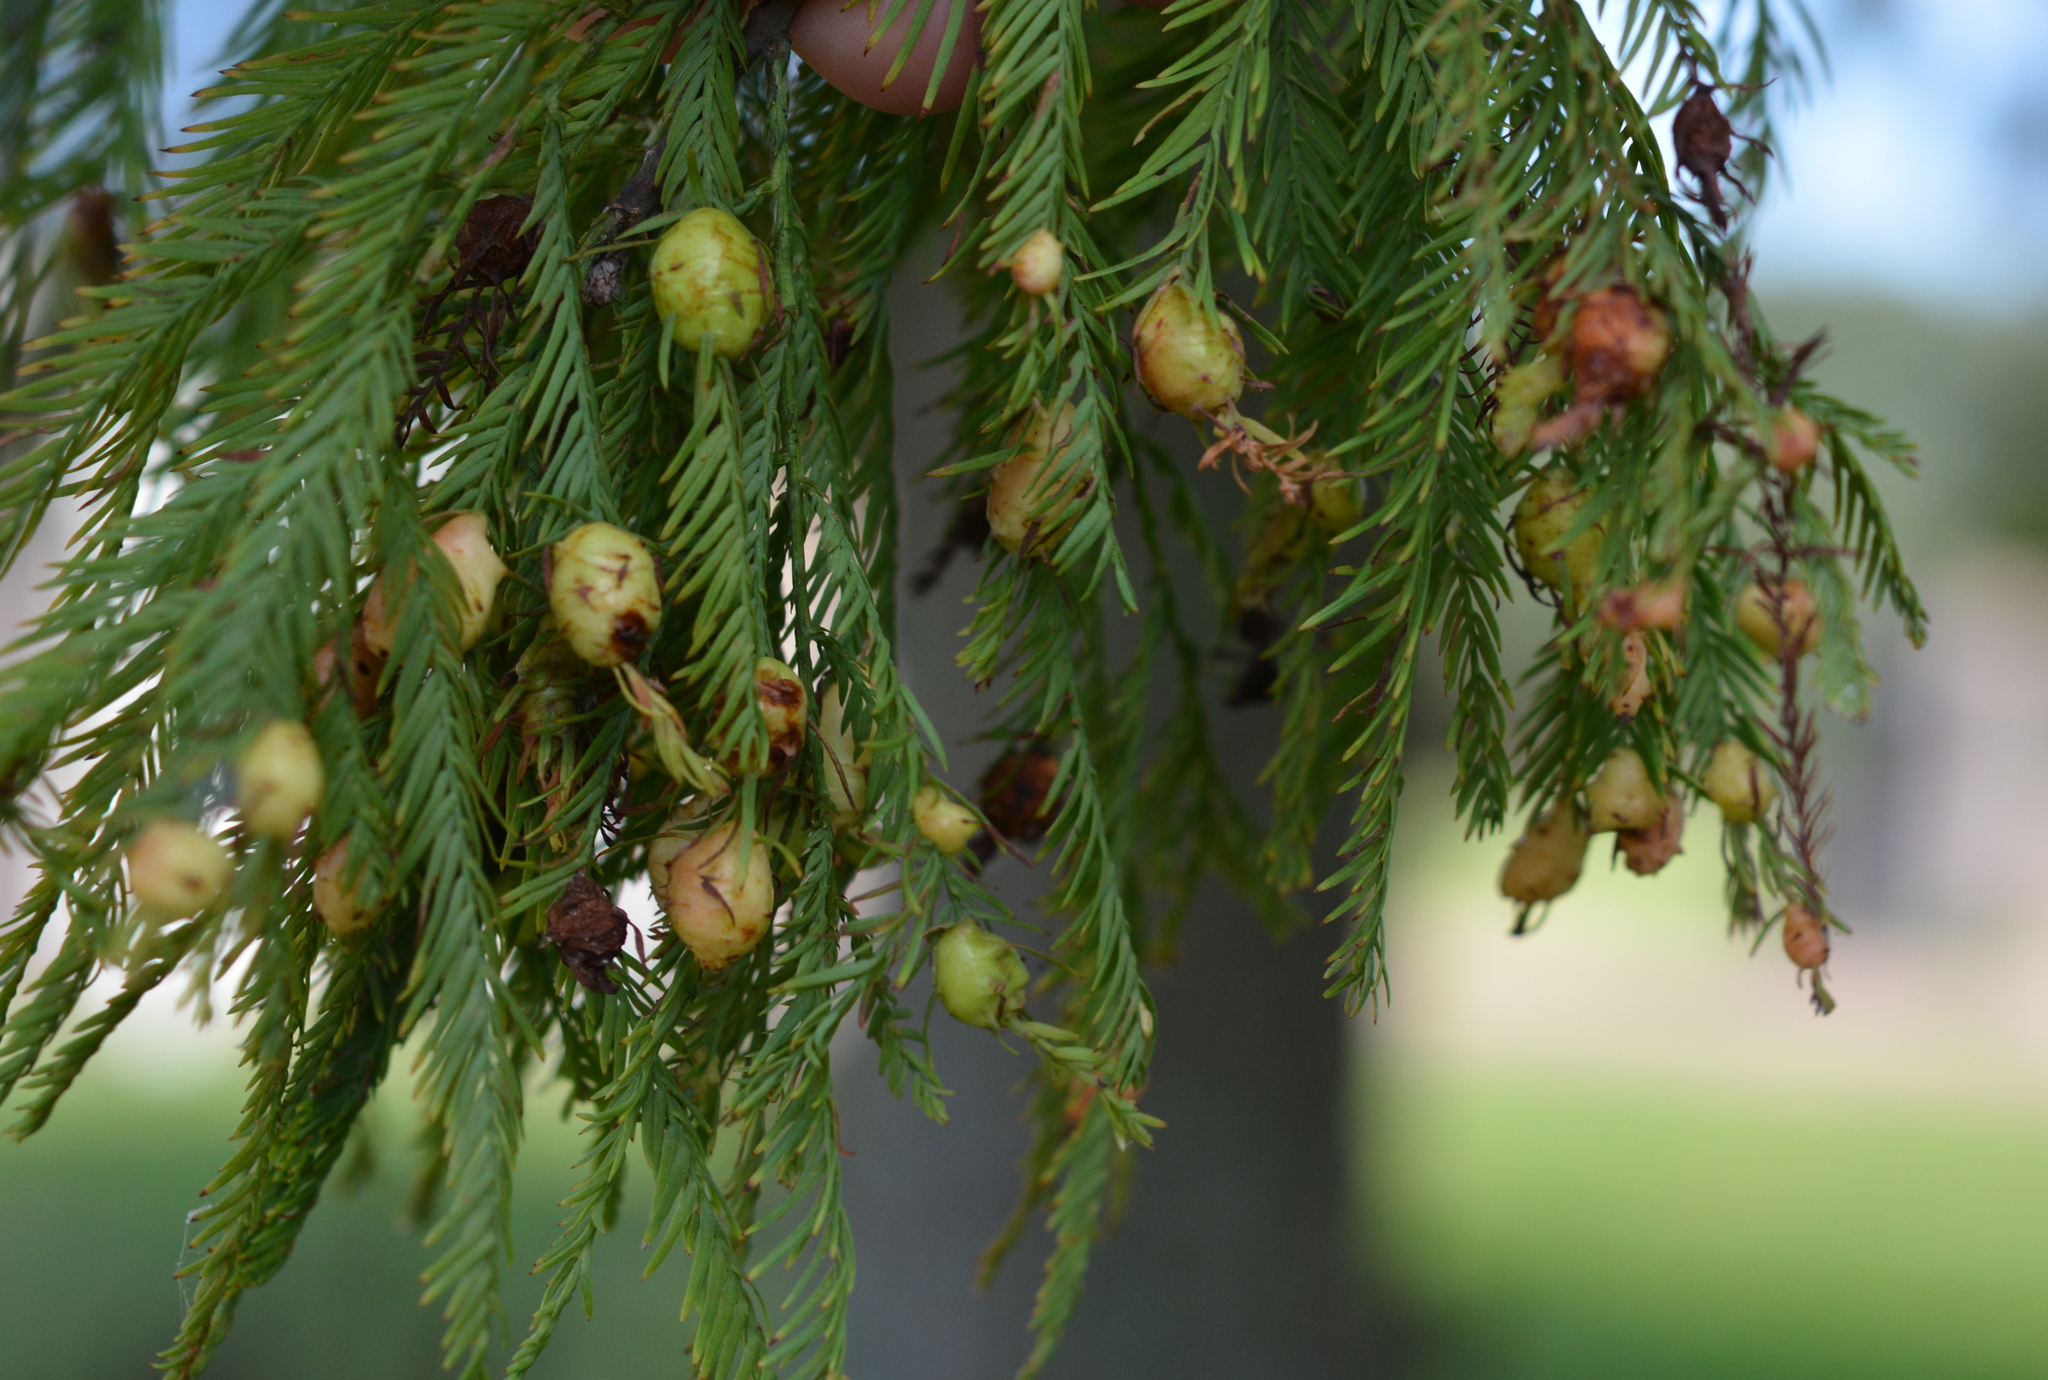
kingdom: Animalia
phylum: Arthropoda
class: Insecta
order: Diptera
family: Cecidomyiidae
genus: Taxodiomyia
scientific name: Taxodiomyia cupressiananassa
